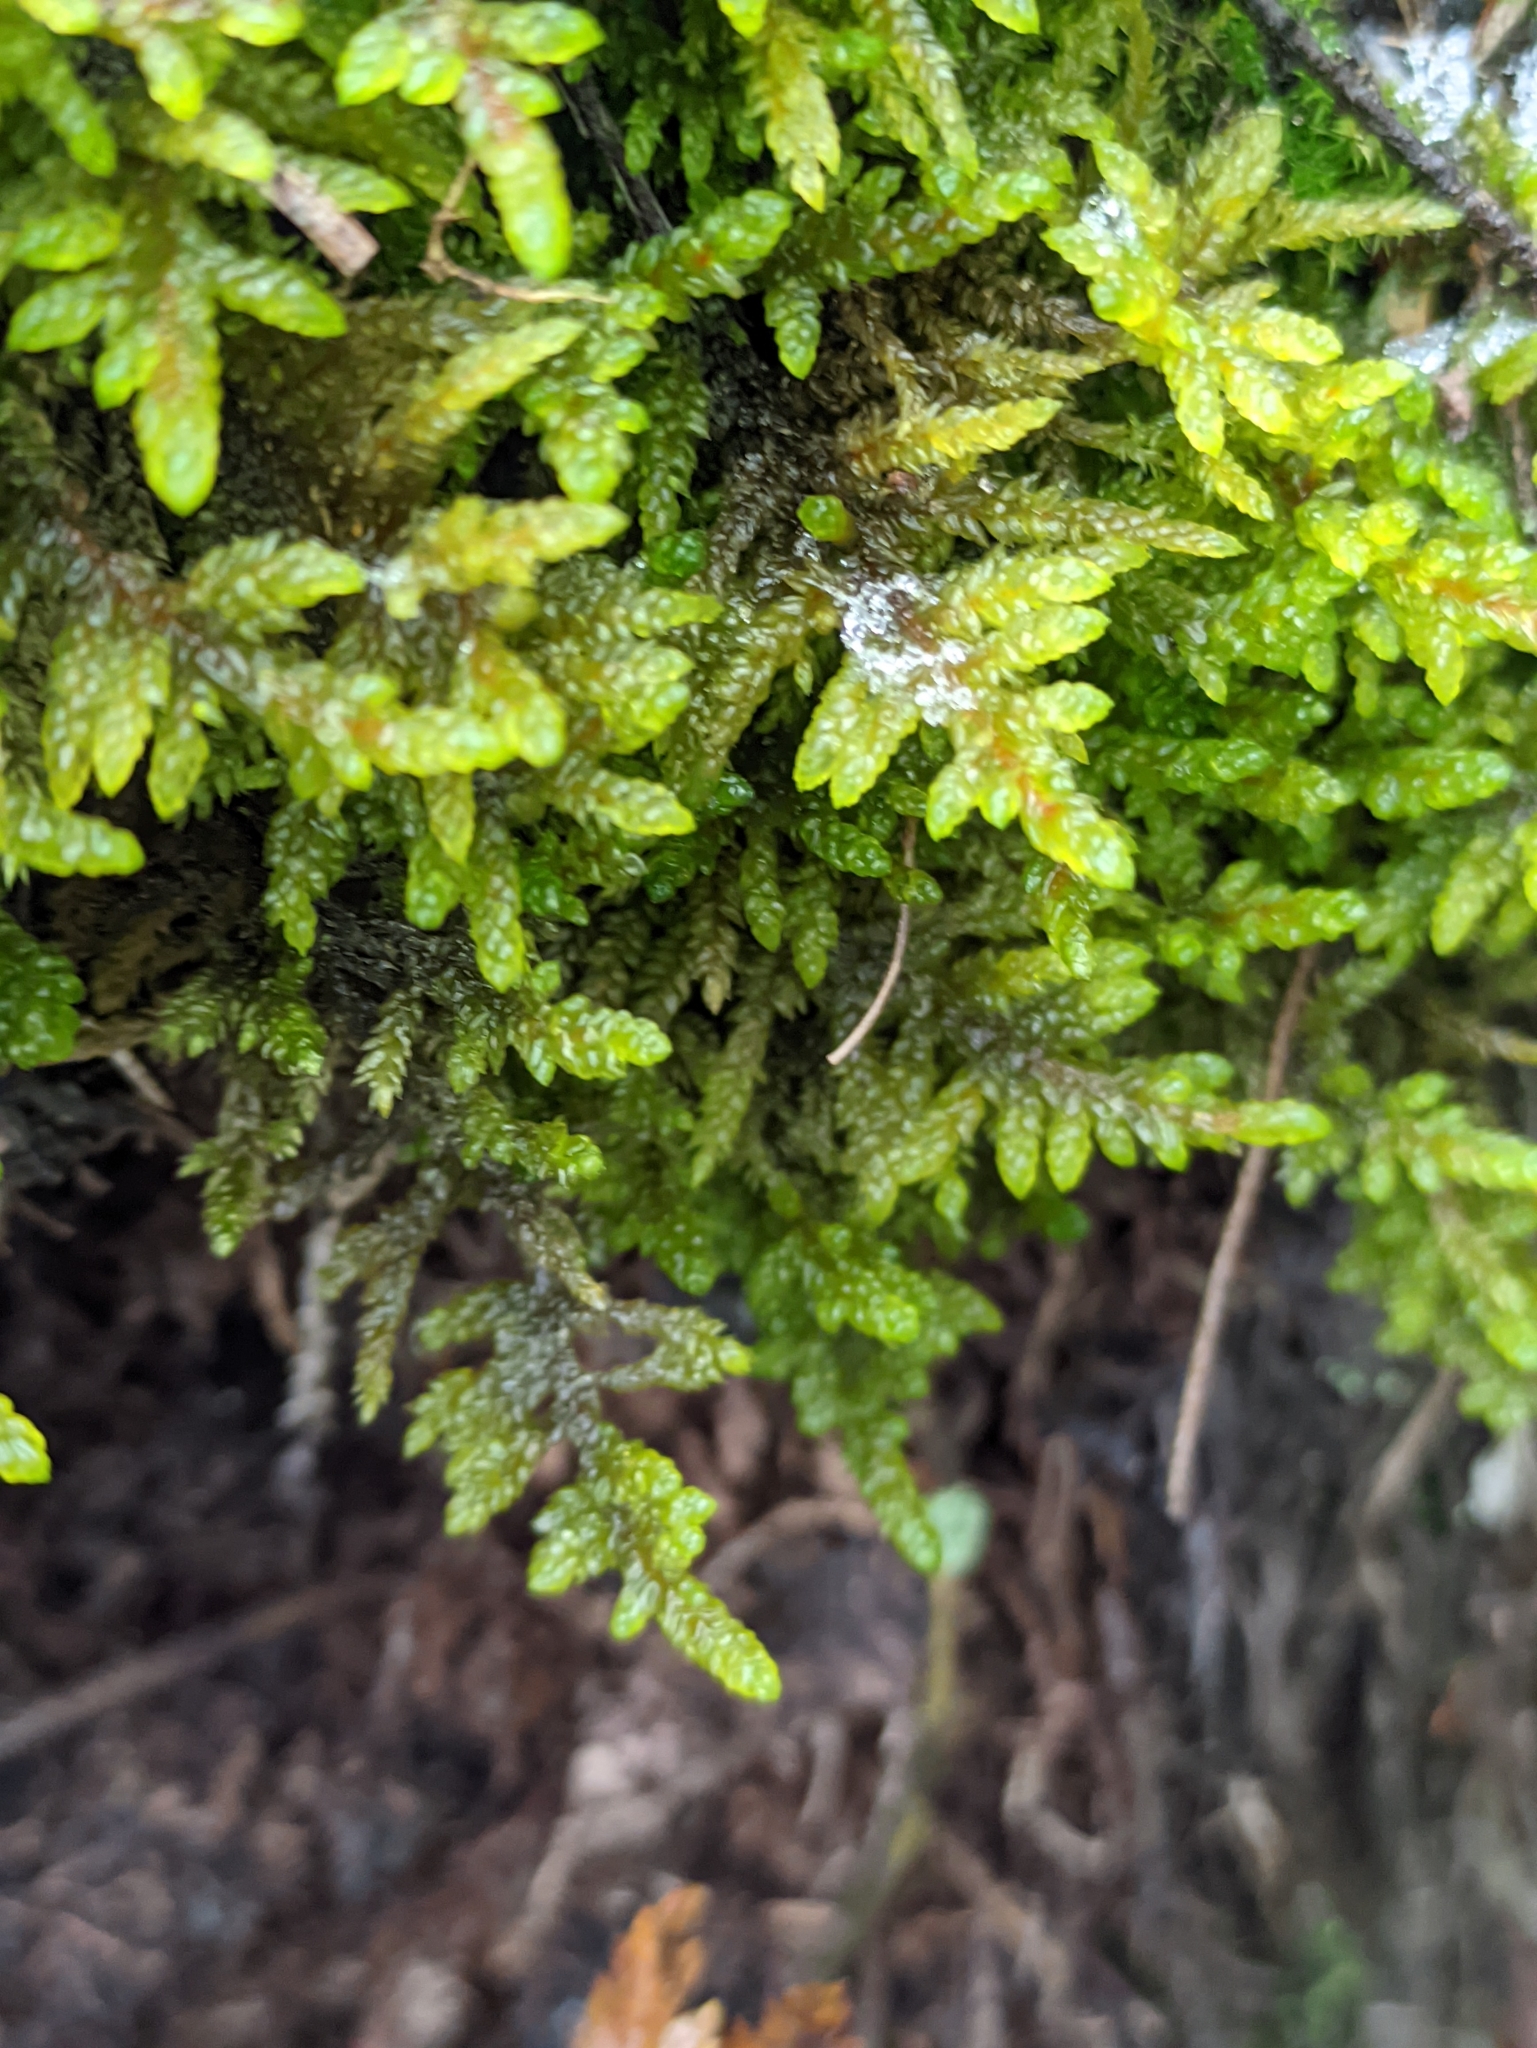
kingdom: Plantae
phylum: Bryophyta
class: Bryopsida
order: Hypnales
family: Hylocomiaceae
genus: Pleurozium
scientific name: Pleurozium schreberi
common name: Red-stemmed feather moss
